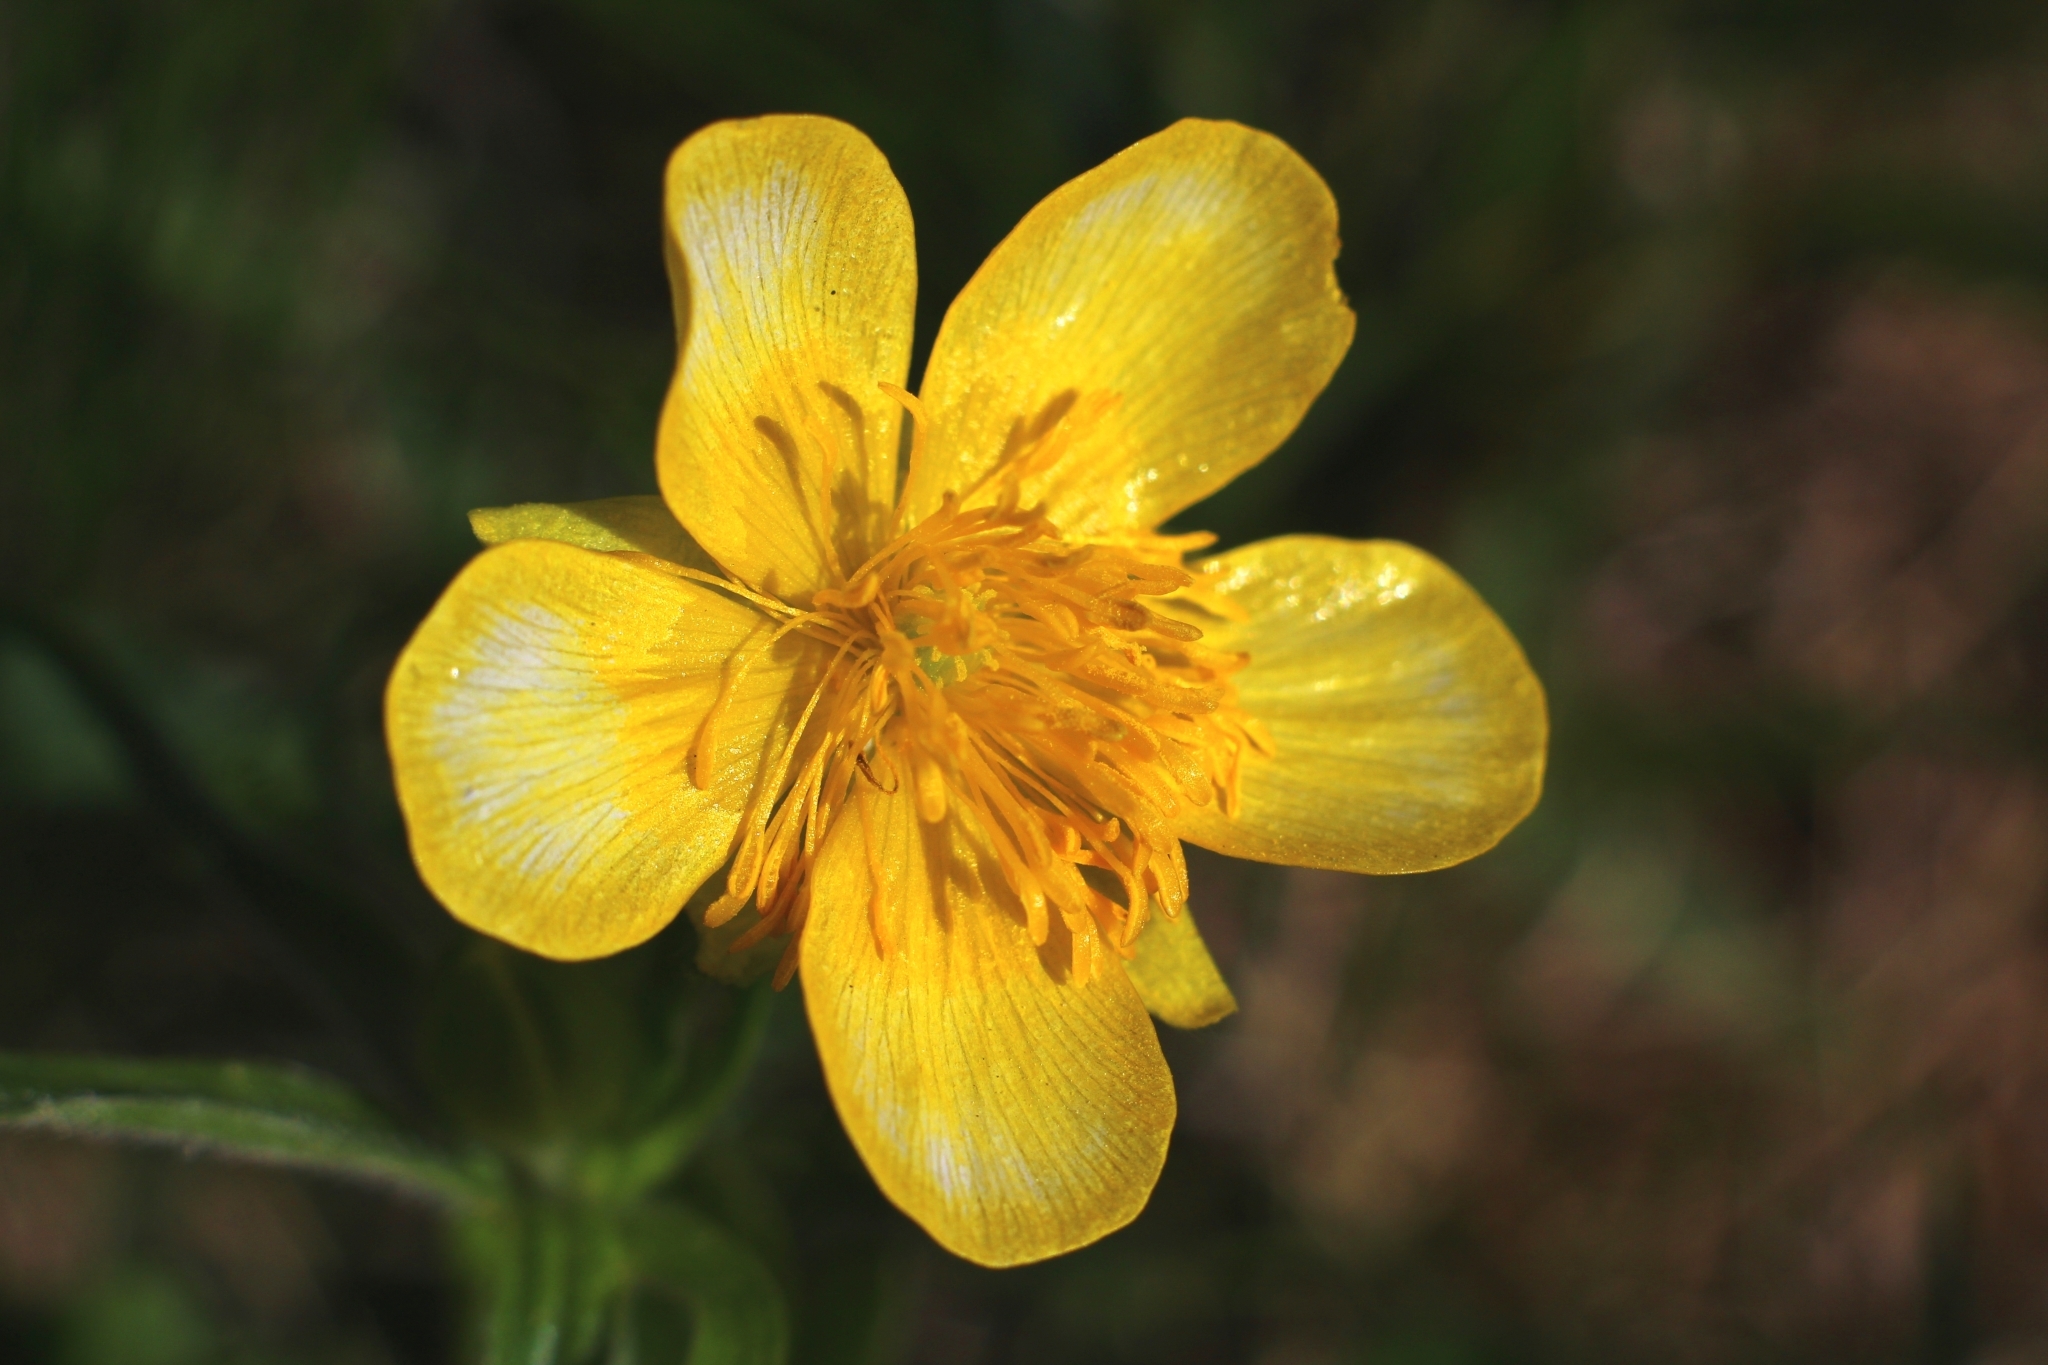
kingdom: Plantae
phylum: Tracheophyta
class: Magnoliopsida
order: Ranunculales
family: Ranunculaceae
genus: Ranunculus
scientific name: Ranunculus montanus
